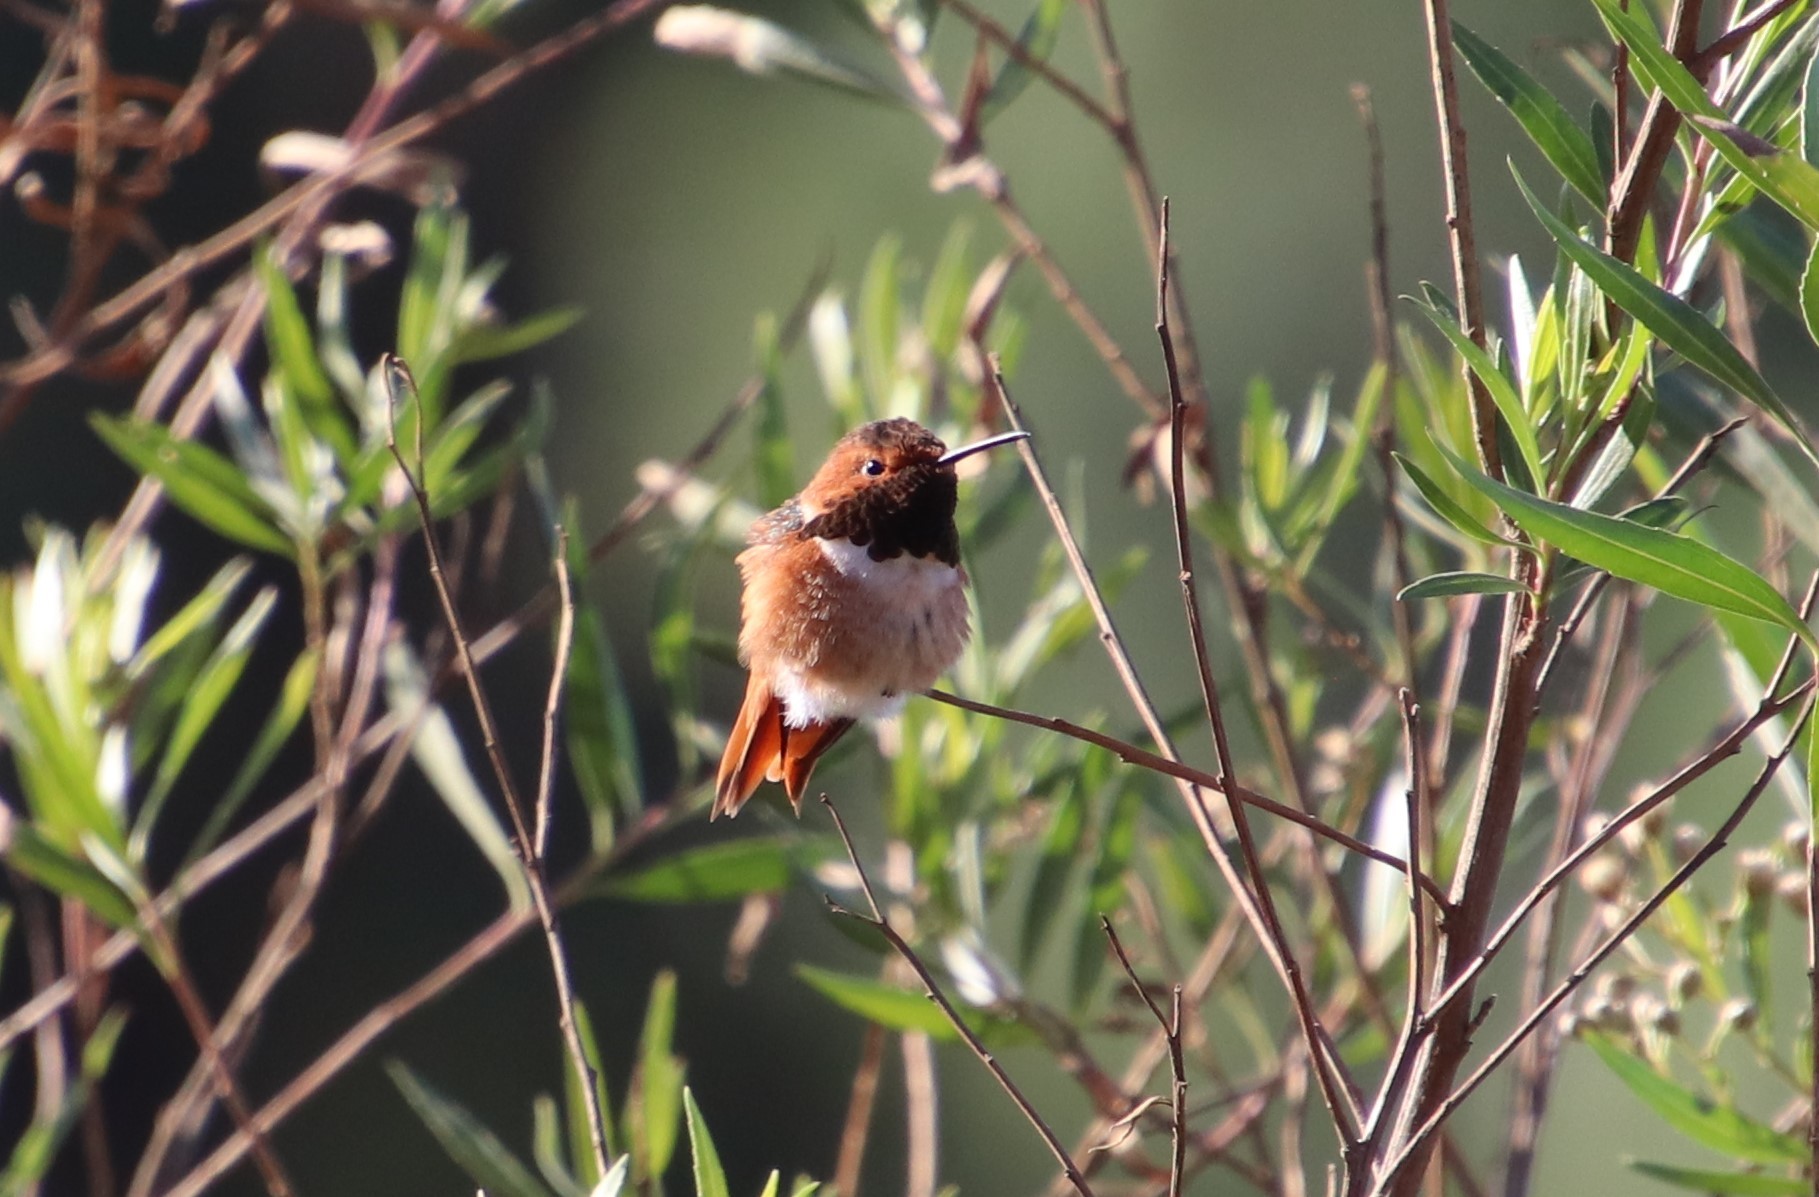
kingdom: Animalia
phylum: Chordata
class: Aves
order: Apodiformes
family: Trochilidae
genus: Selasphorus
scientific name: Selasphorus sasin
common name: Allen's hummingbird
